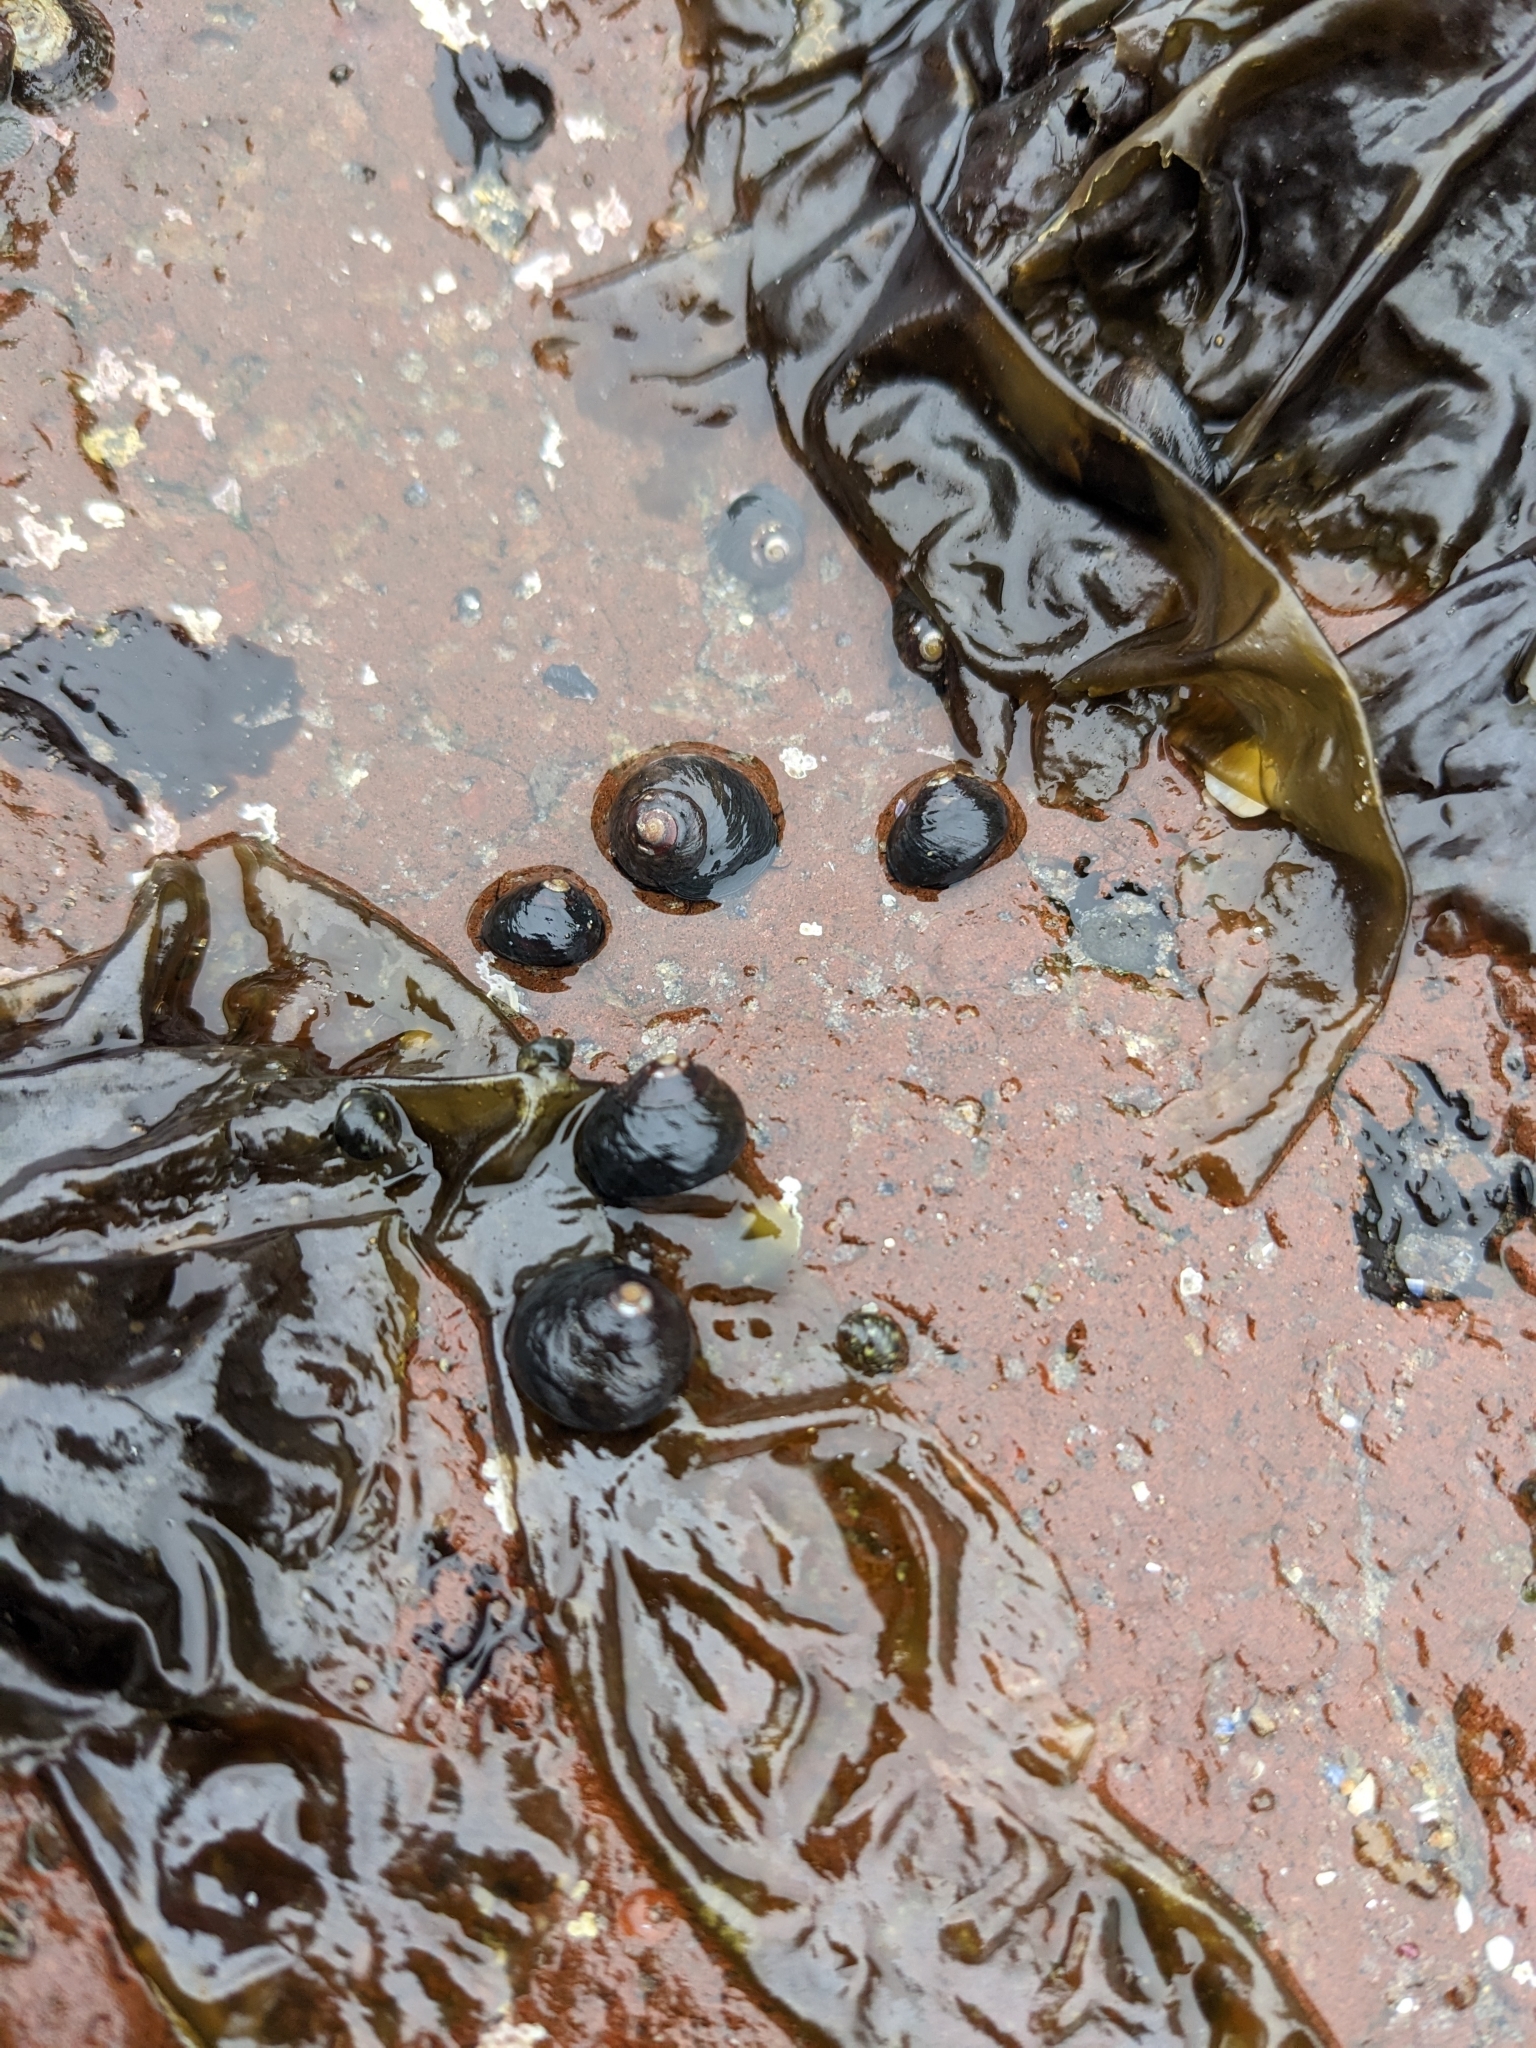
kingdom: Animalia
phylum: Mollusca
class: Gastropoda
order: Trochida
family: Tegulidae
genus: Tegula
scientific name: Tegula funebralis
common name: Black tegula
